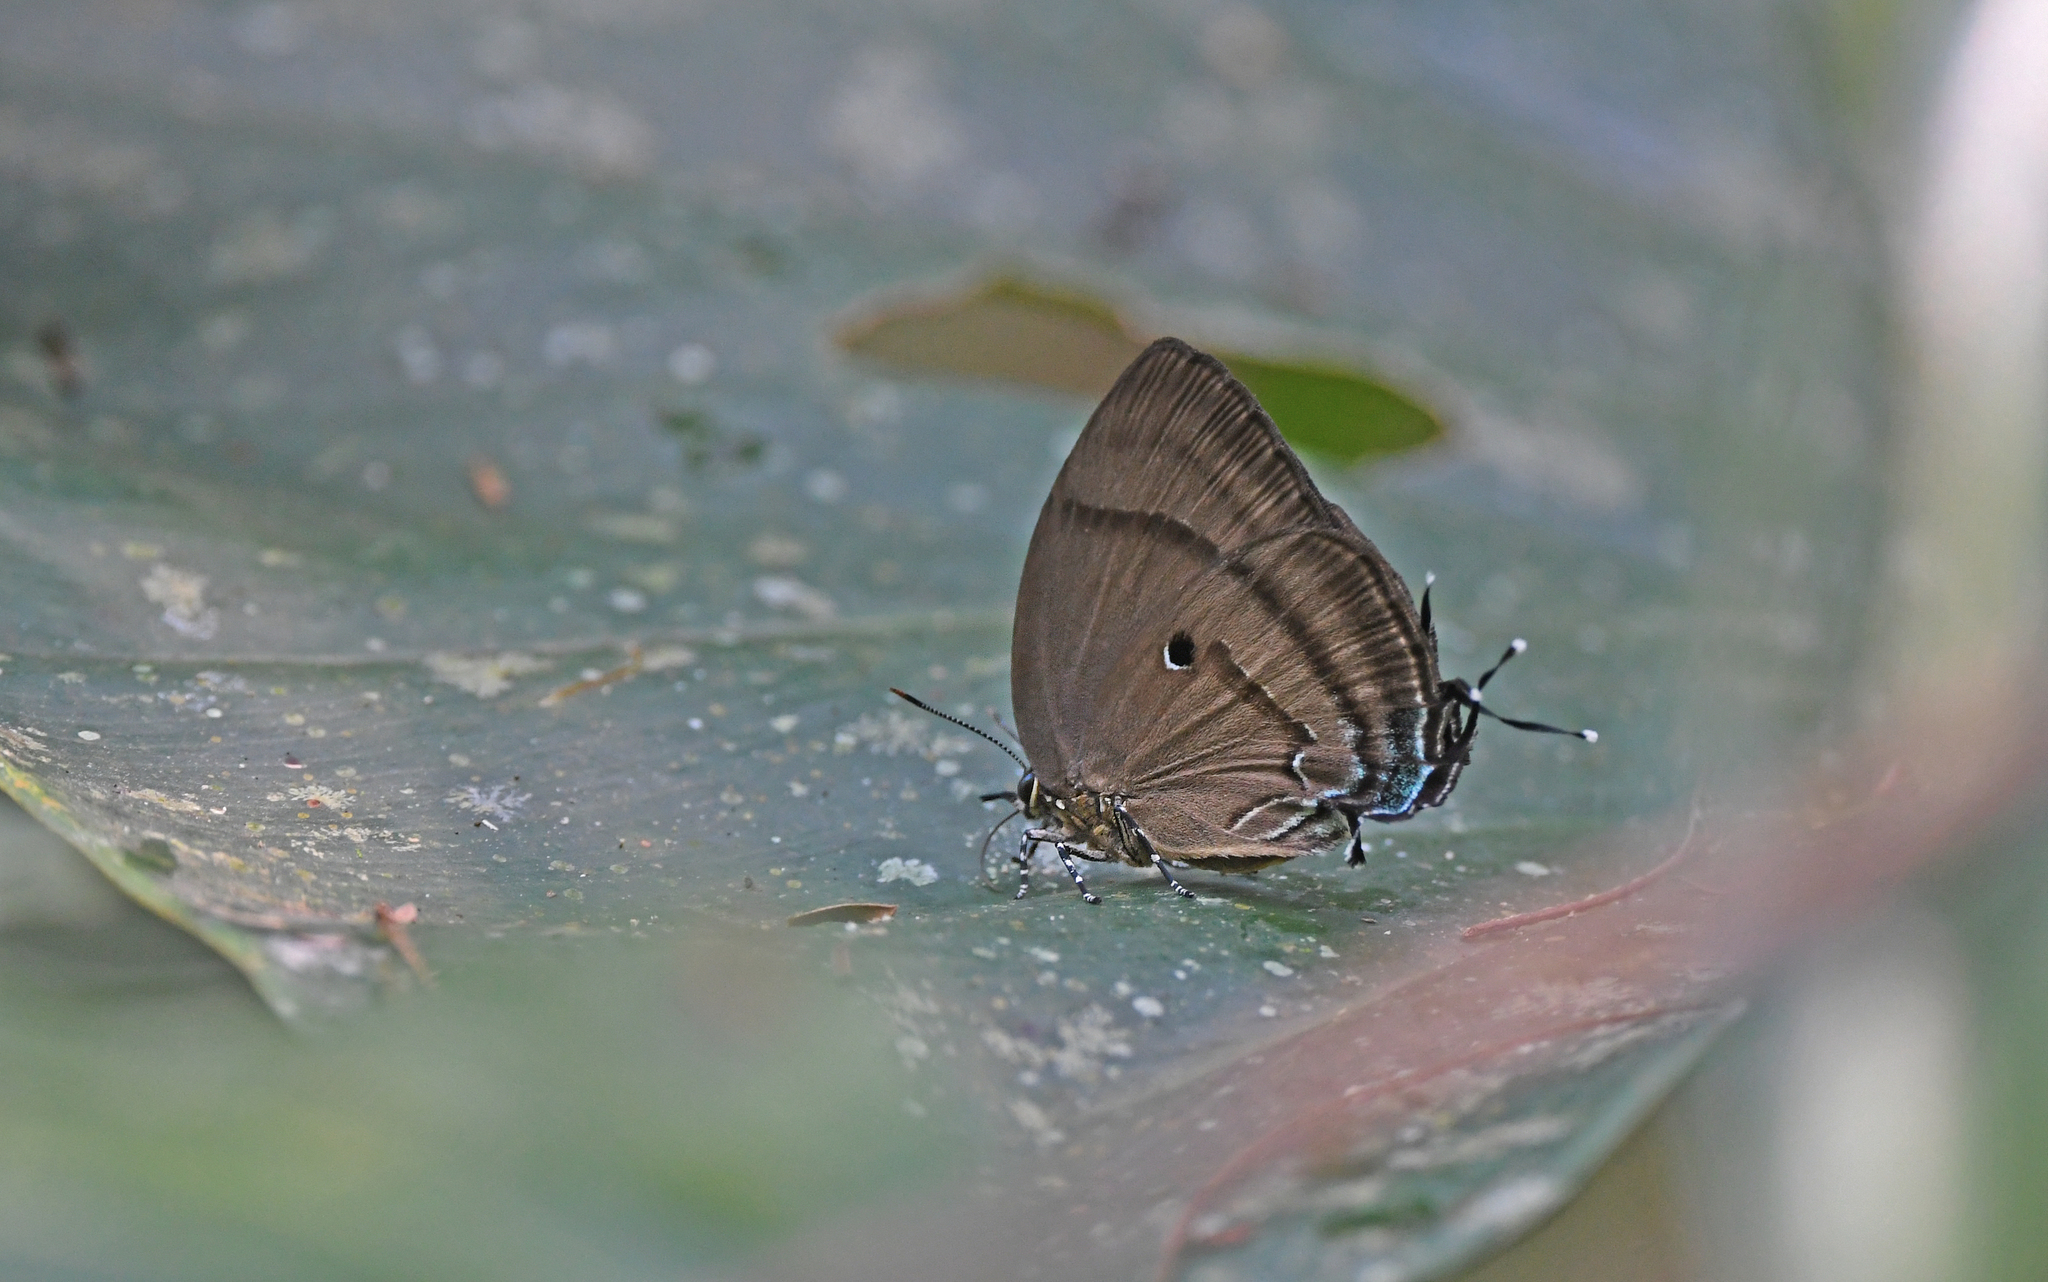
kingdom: Animalia
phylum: Arthropoda
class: Insecta
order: Lepidoptera
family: Lycaenidae
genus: Denivia
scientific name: Denivia hemon
